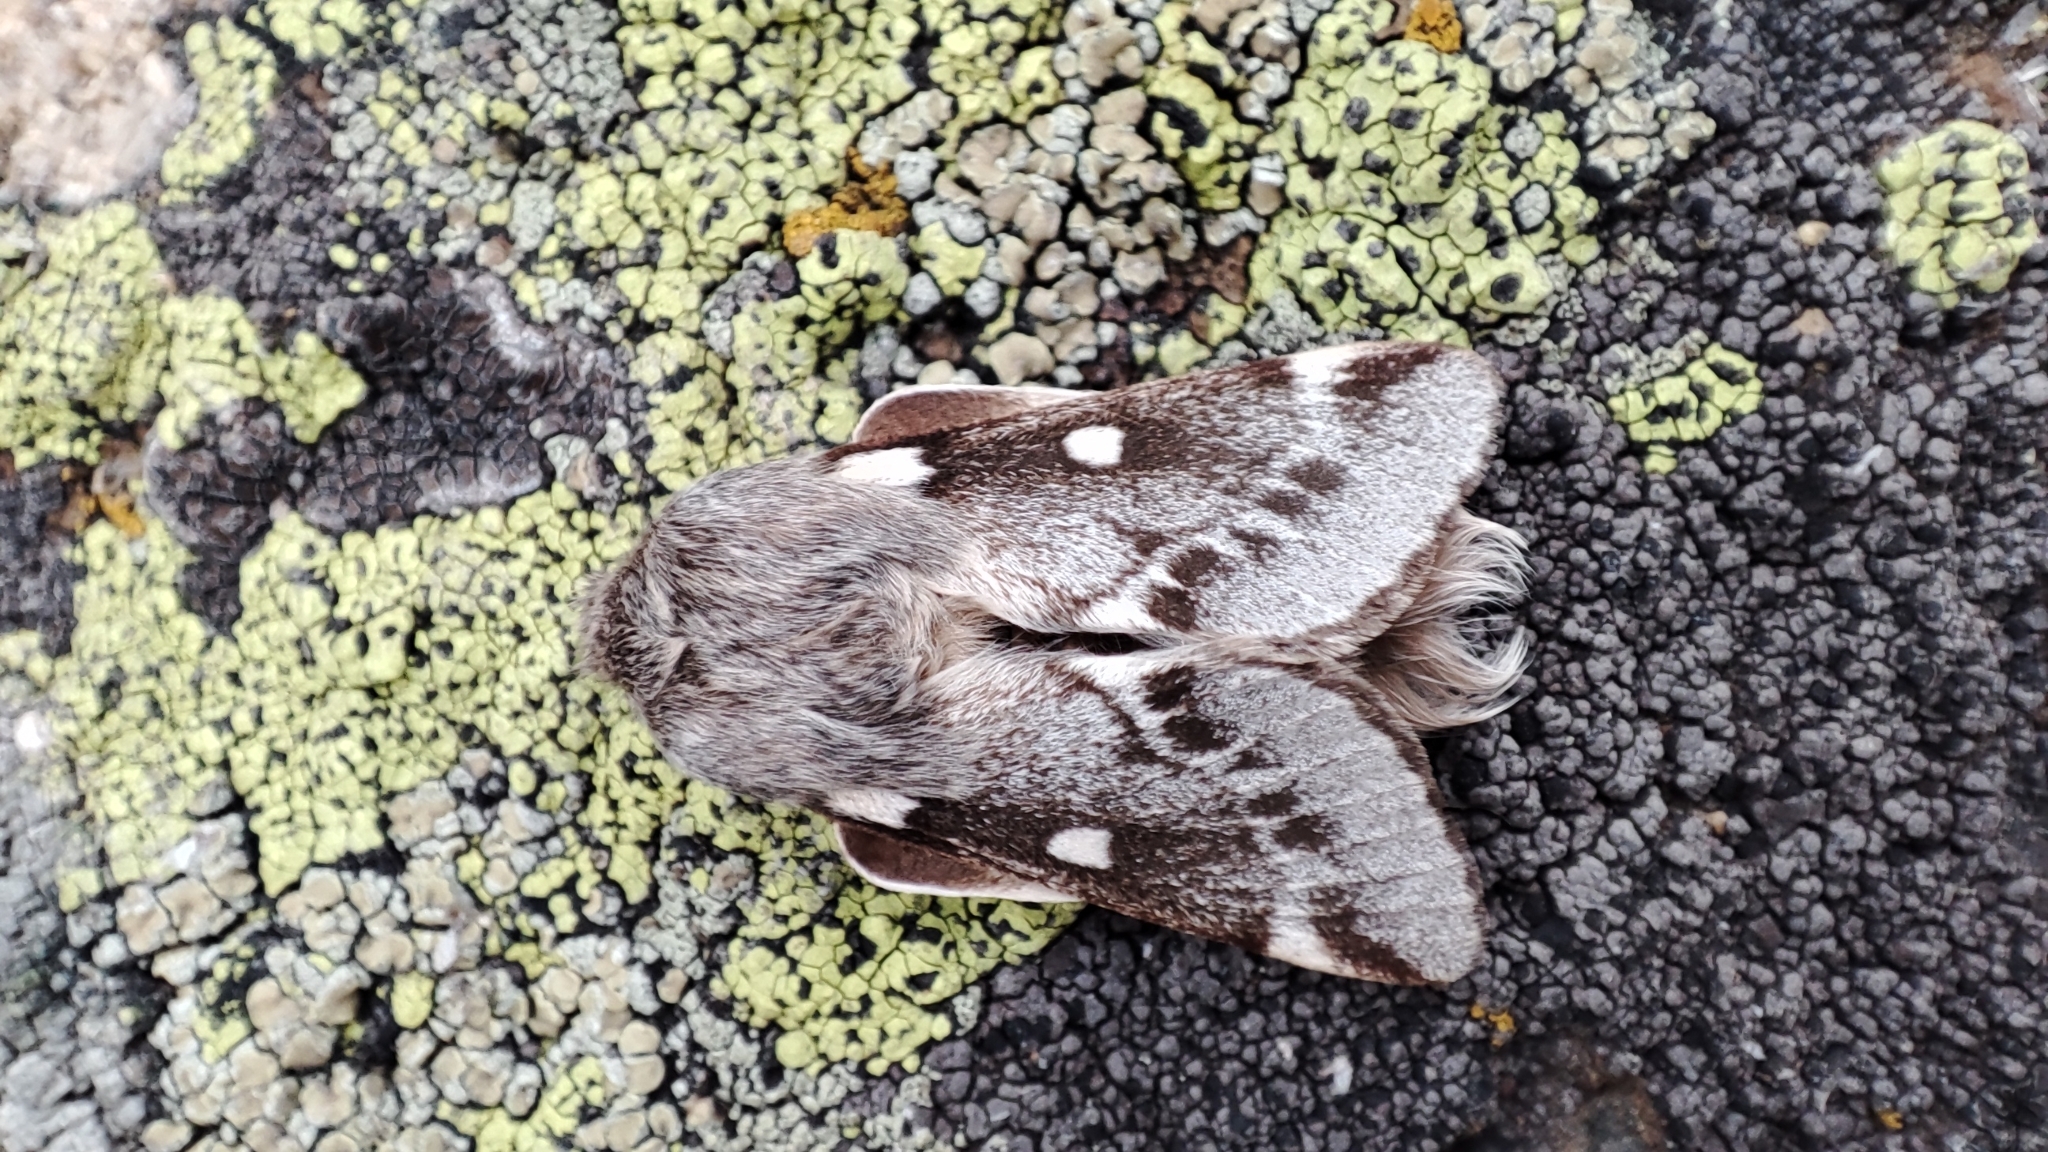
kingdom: Animalia
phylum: Arthropoda
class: Insecta
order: Lepidoptera
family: Lasiocampidae
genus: Eriogaster
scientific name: Eriogaster lanestris
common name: Small eggar
